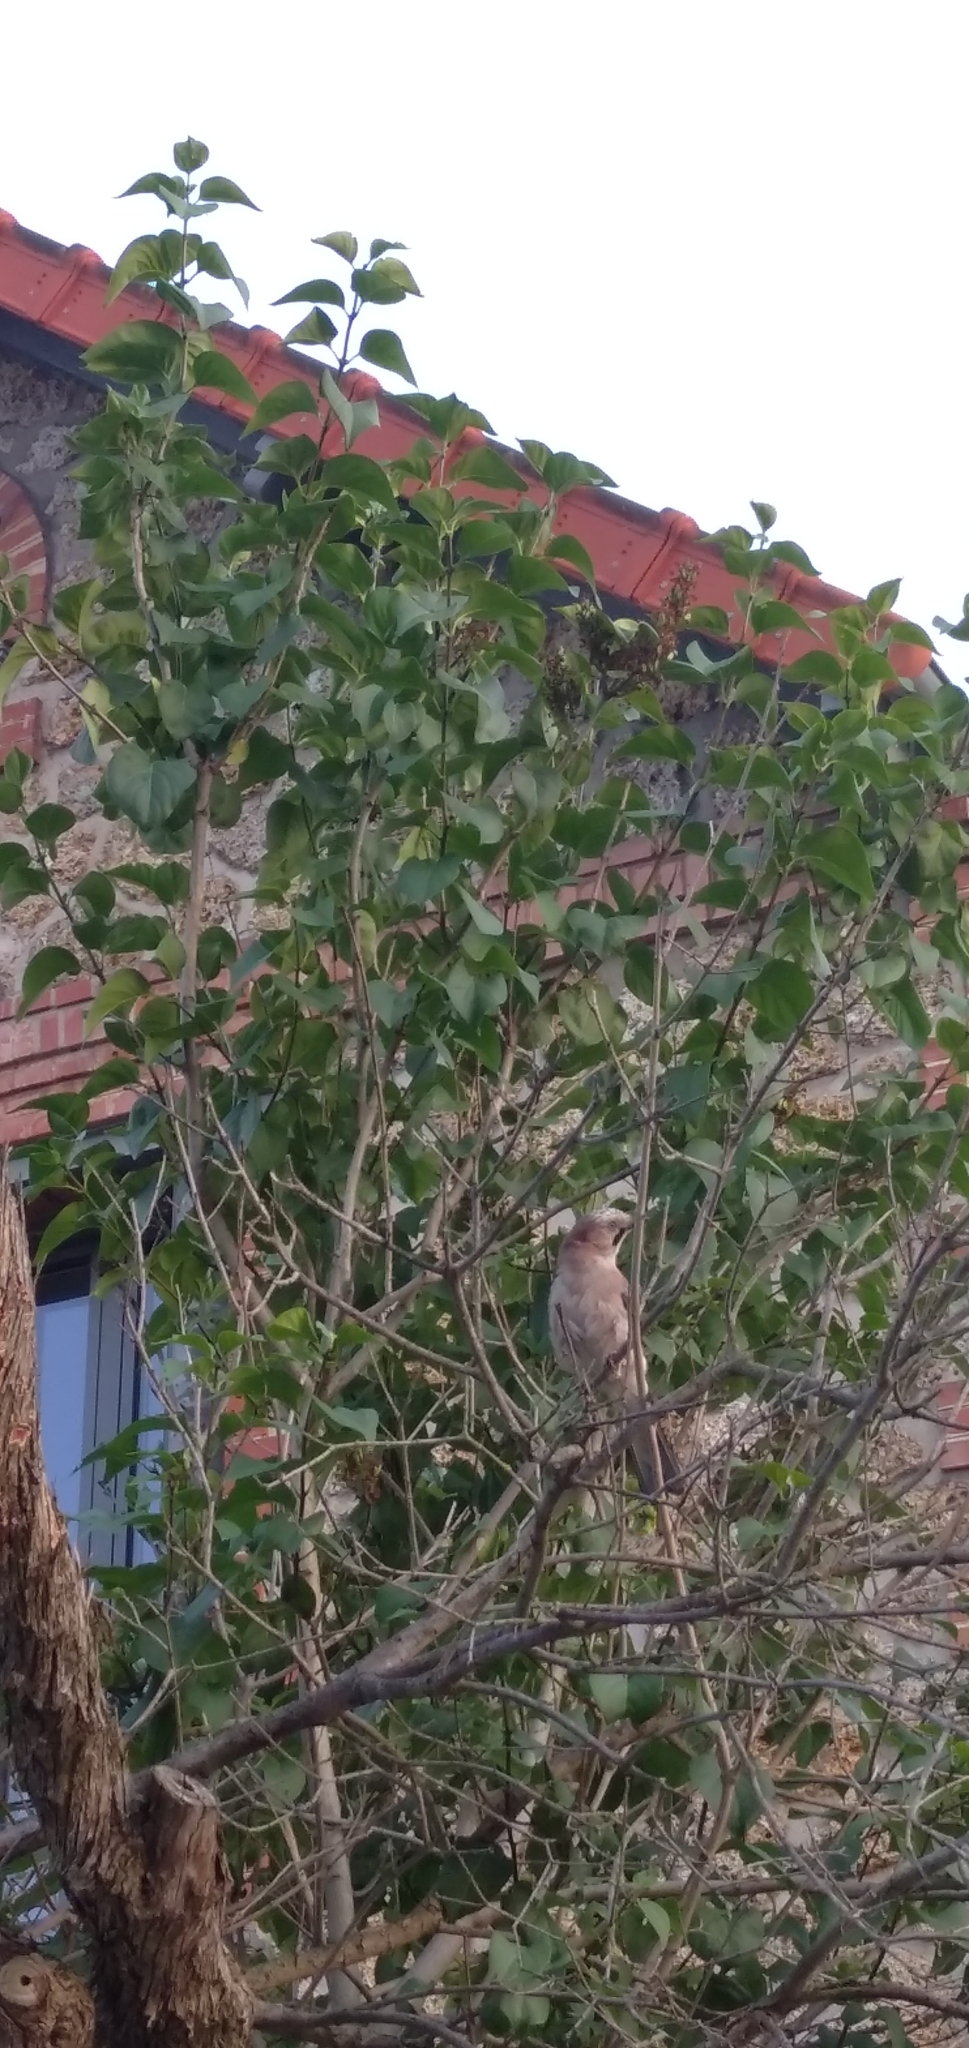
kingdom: Animalia
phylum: Chordata
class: Aves
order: Passeriformes
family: Corvidae
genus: Garrulus
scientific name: Garrulus glandarius
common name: Eurasian jay
